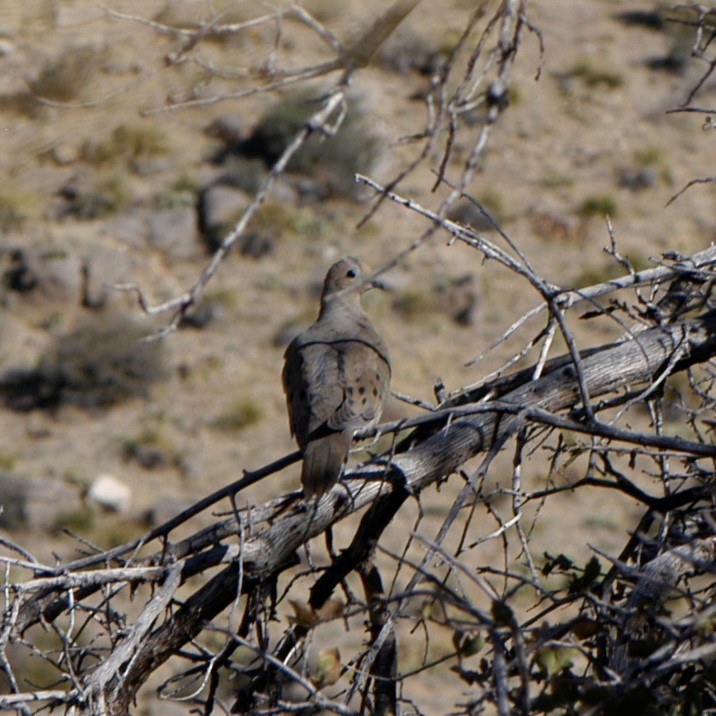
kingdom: Animalia
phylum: Chordata
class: Aves
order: Columbiformes
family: Columbidae
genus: Zenaida
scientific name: Zenaida macroura
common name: Mourning dove
